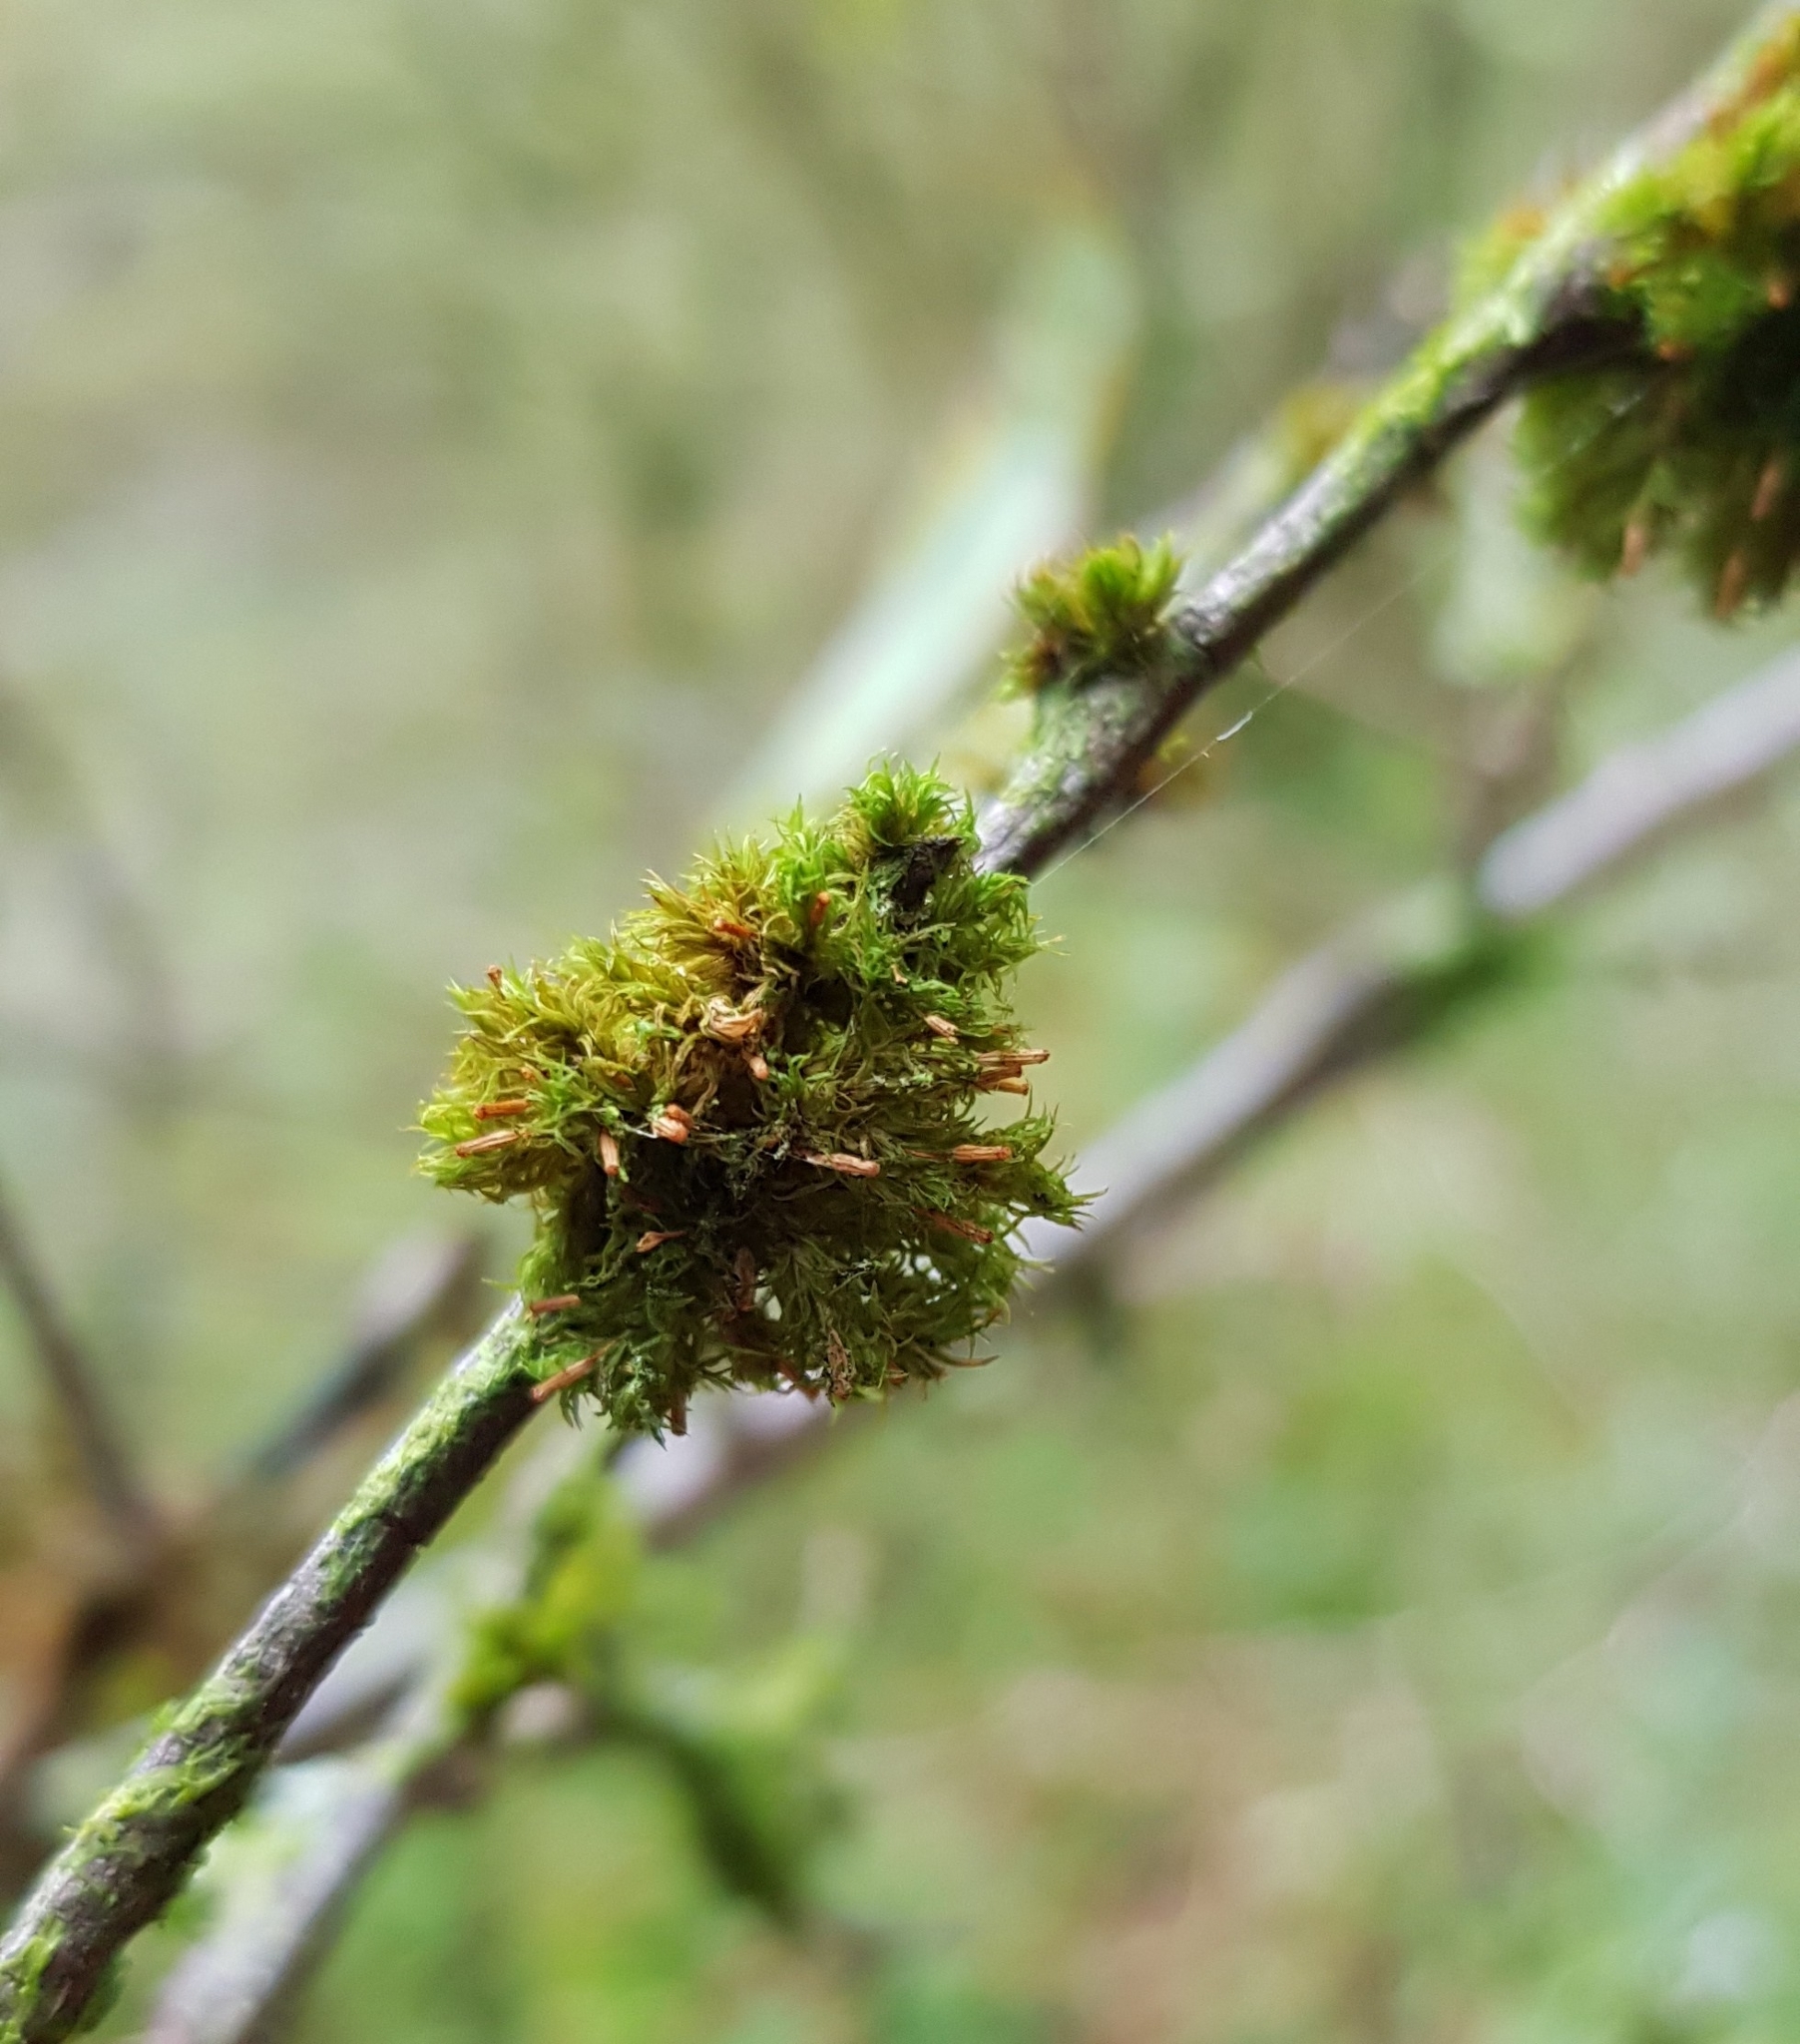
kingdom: Plantae
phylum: Bryophyta
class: Bryopsida
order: Orthotrichales
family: Orthotrichaceae
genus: Orthotrichum
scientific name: Orthotrichum pulchellum
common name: Elegant bristle-moss
